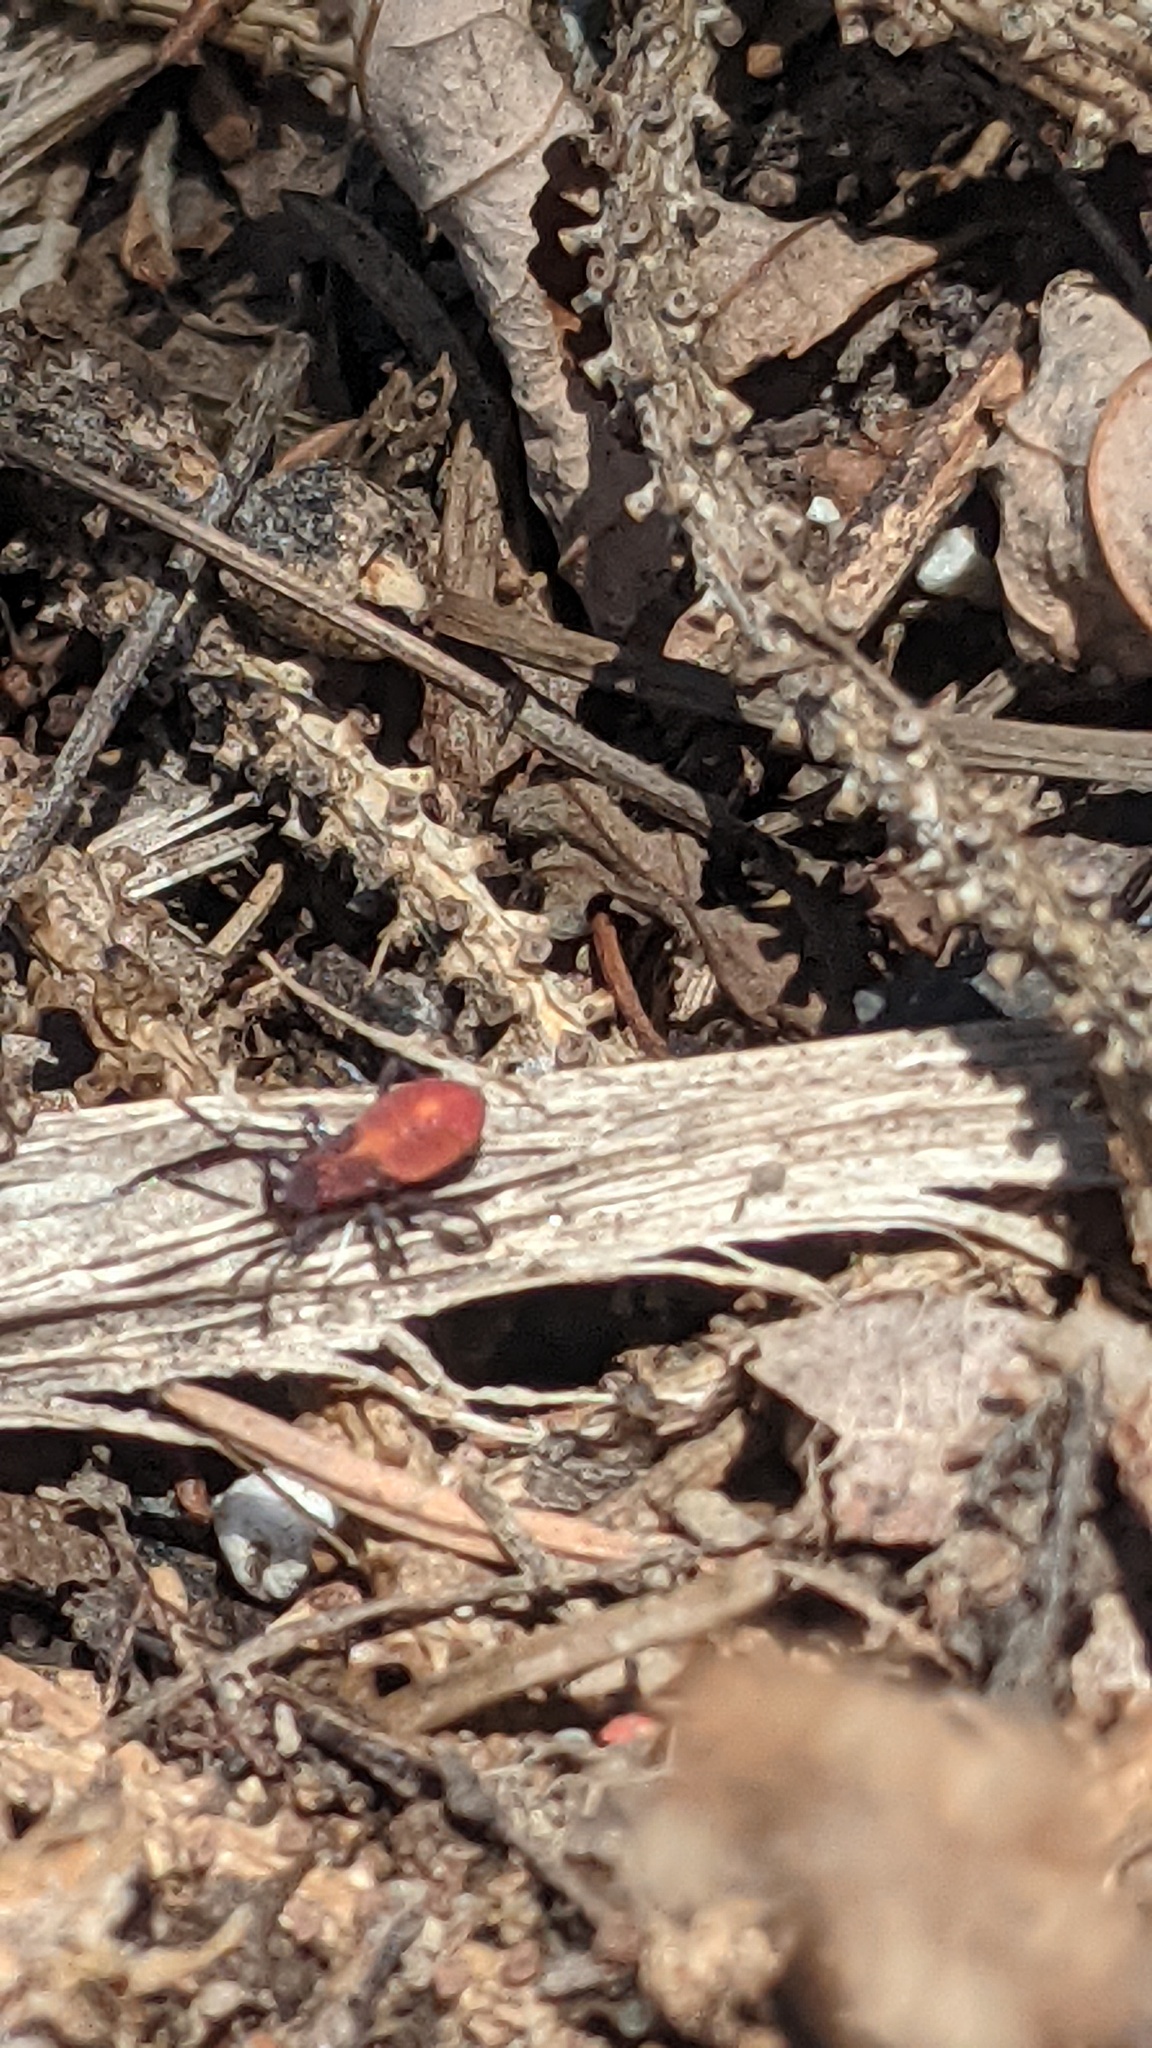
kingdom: Animalia
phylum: Arthropoda
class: Insecta
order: Hemiptera
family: Rhopalidae
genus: Boisea
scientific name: Boisea trivittata
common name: Boxelder bug
